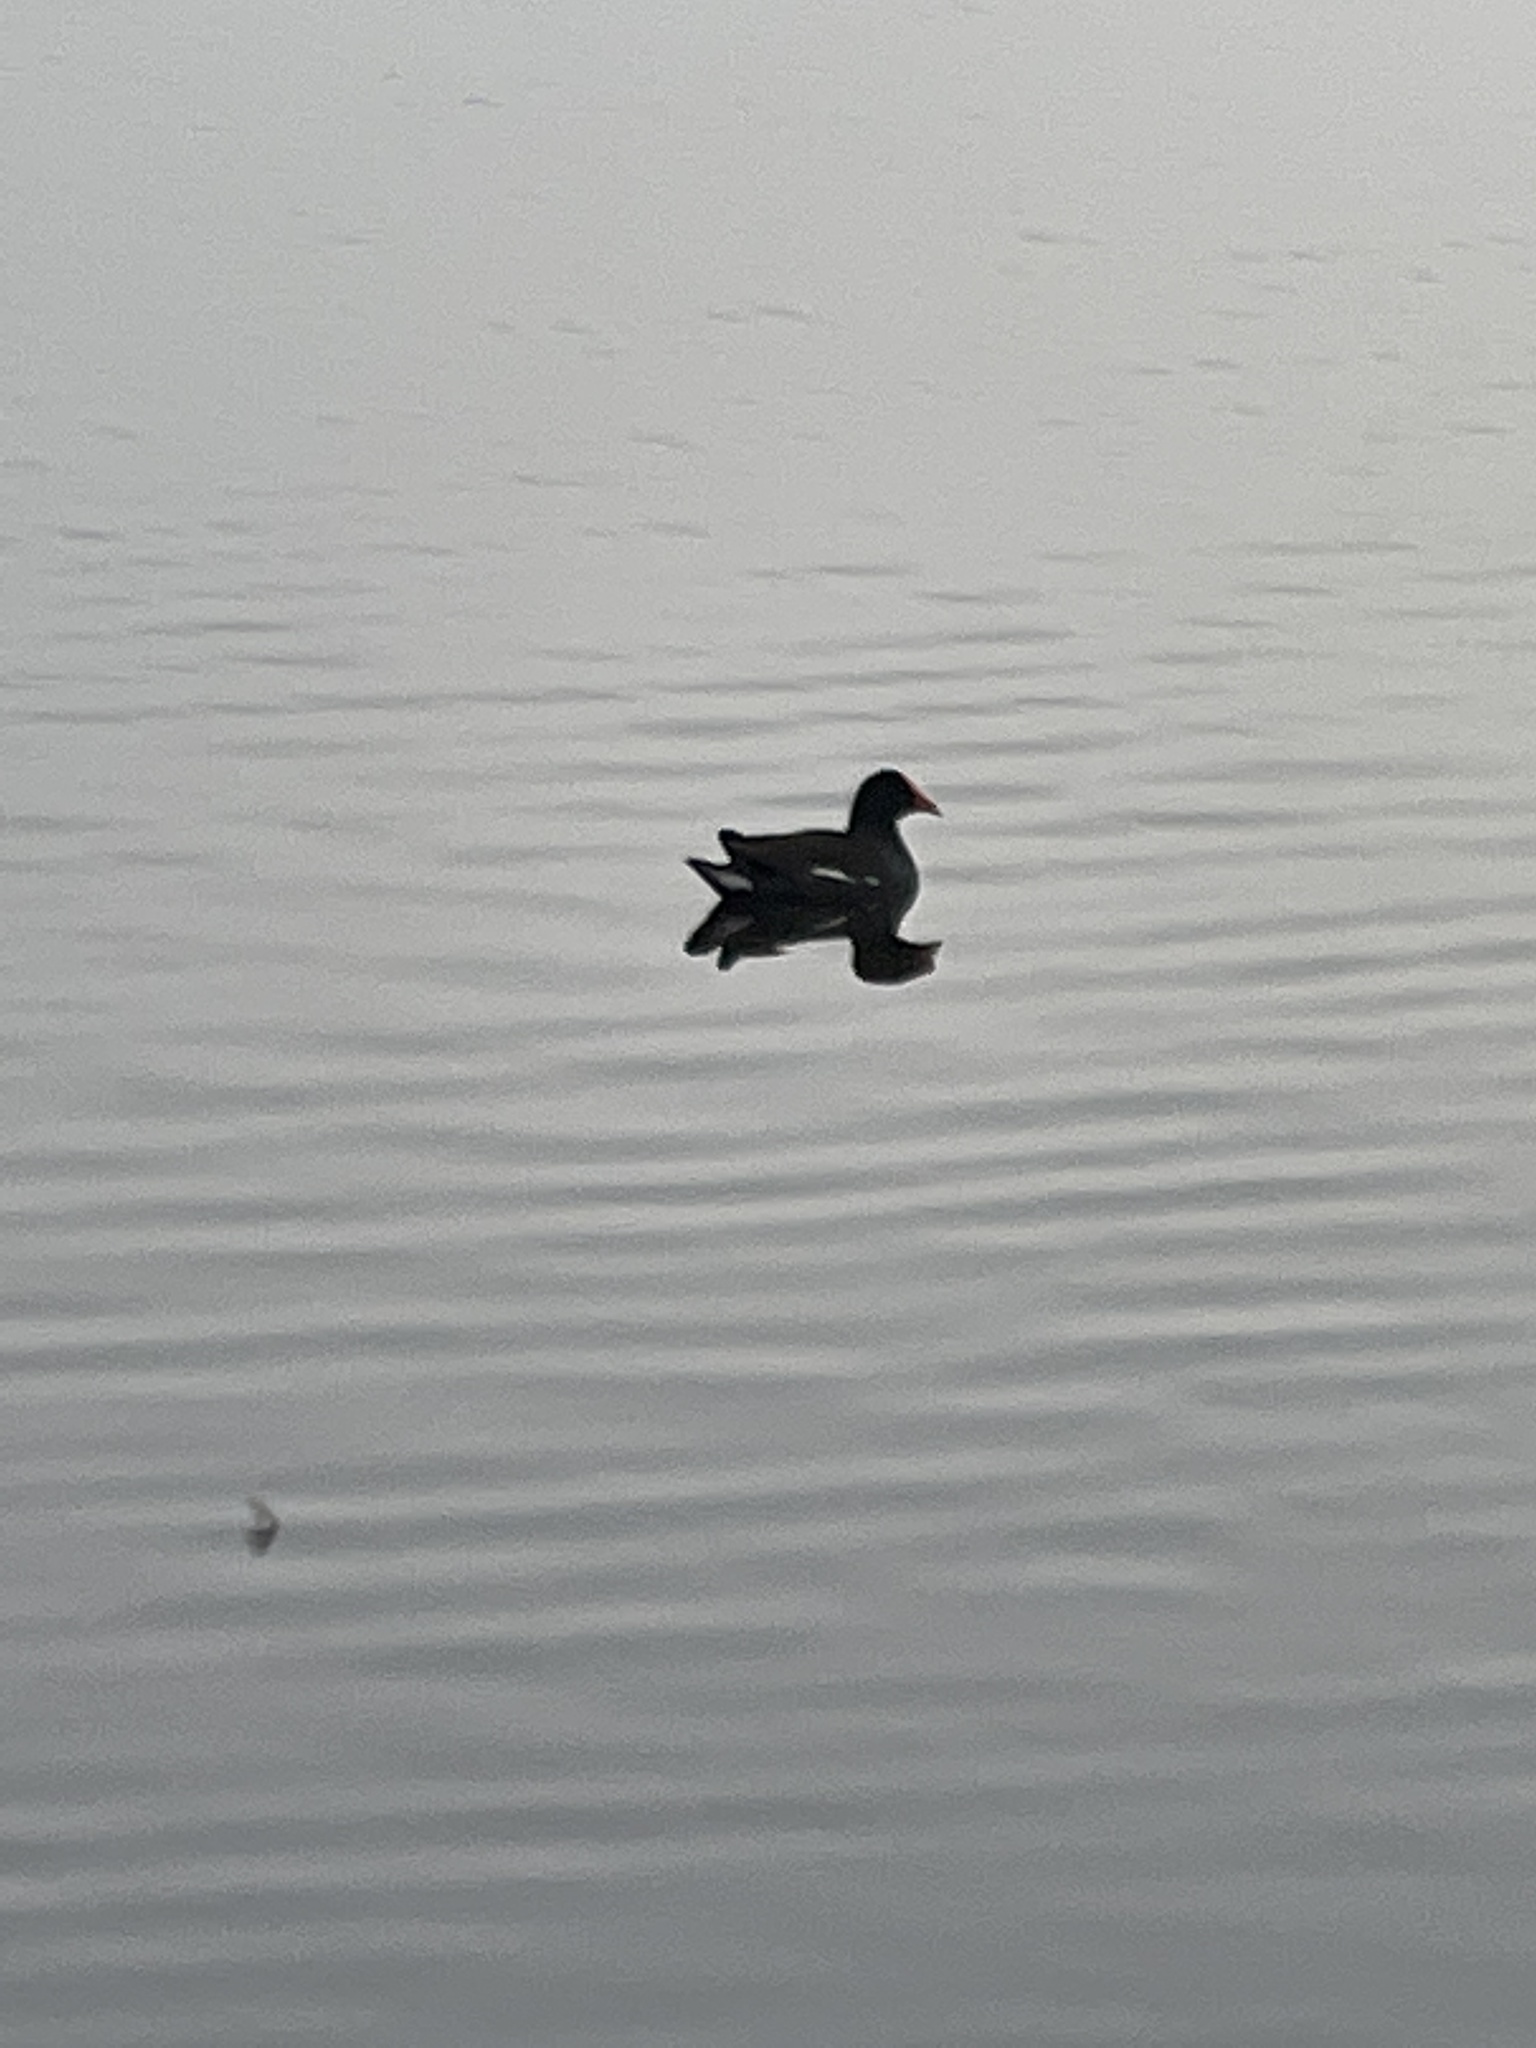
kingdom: Animalia
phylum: Chordata
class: Aves
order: Gruiformes
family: Rallidae
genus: Gallinula
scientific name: Gallinula chloropus
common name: Common moorhen
